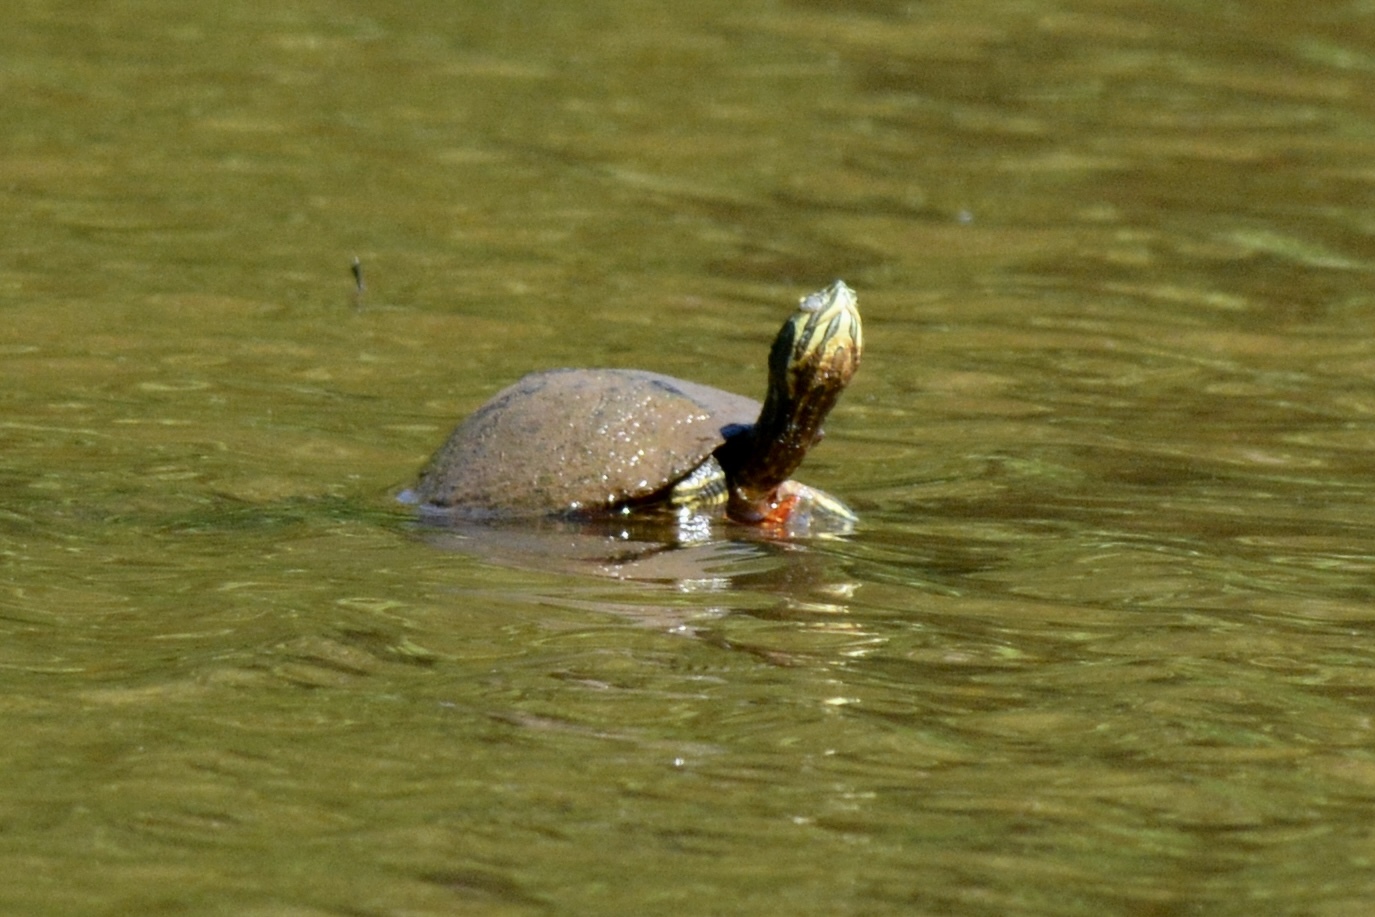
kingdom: Animalia
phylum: Chordata
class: Testudines
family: Emydidae
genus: Trachemys
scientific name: Trachemys scripta
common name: Slider
